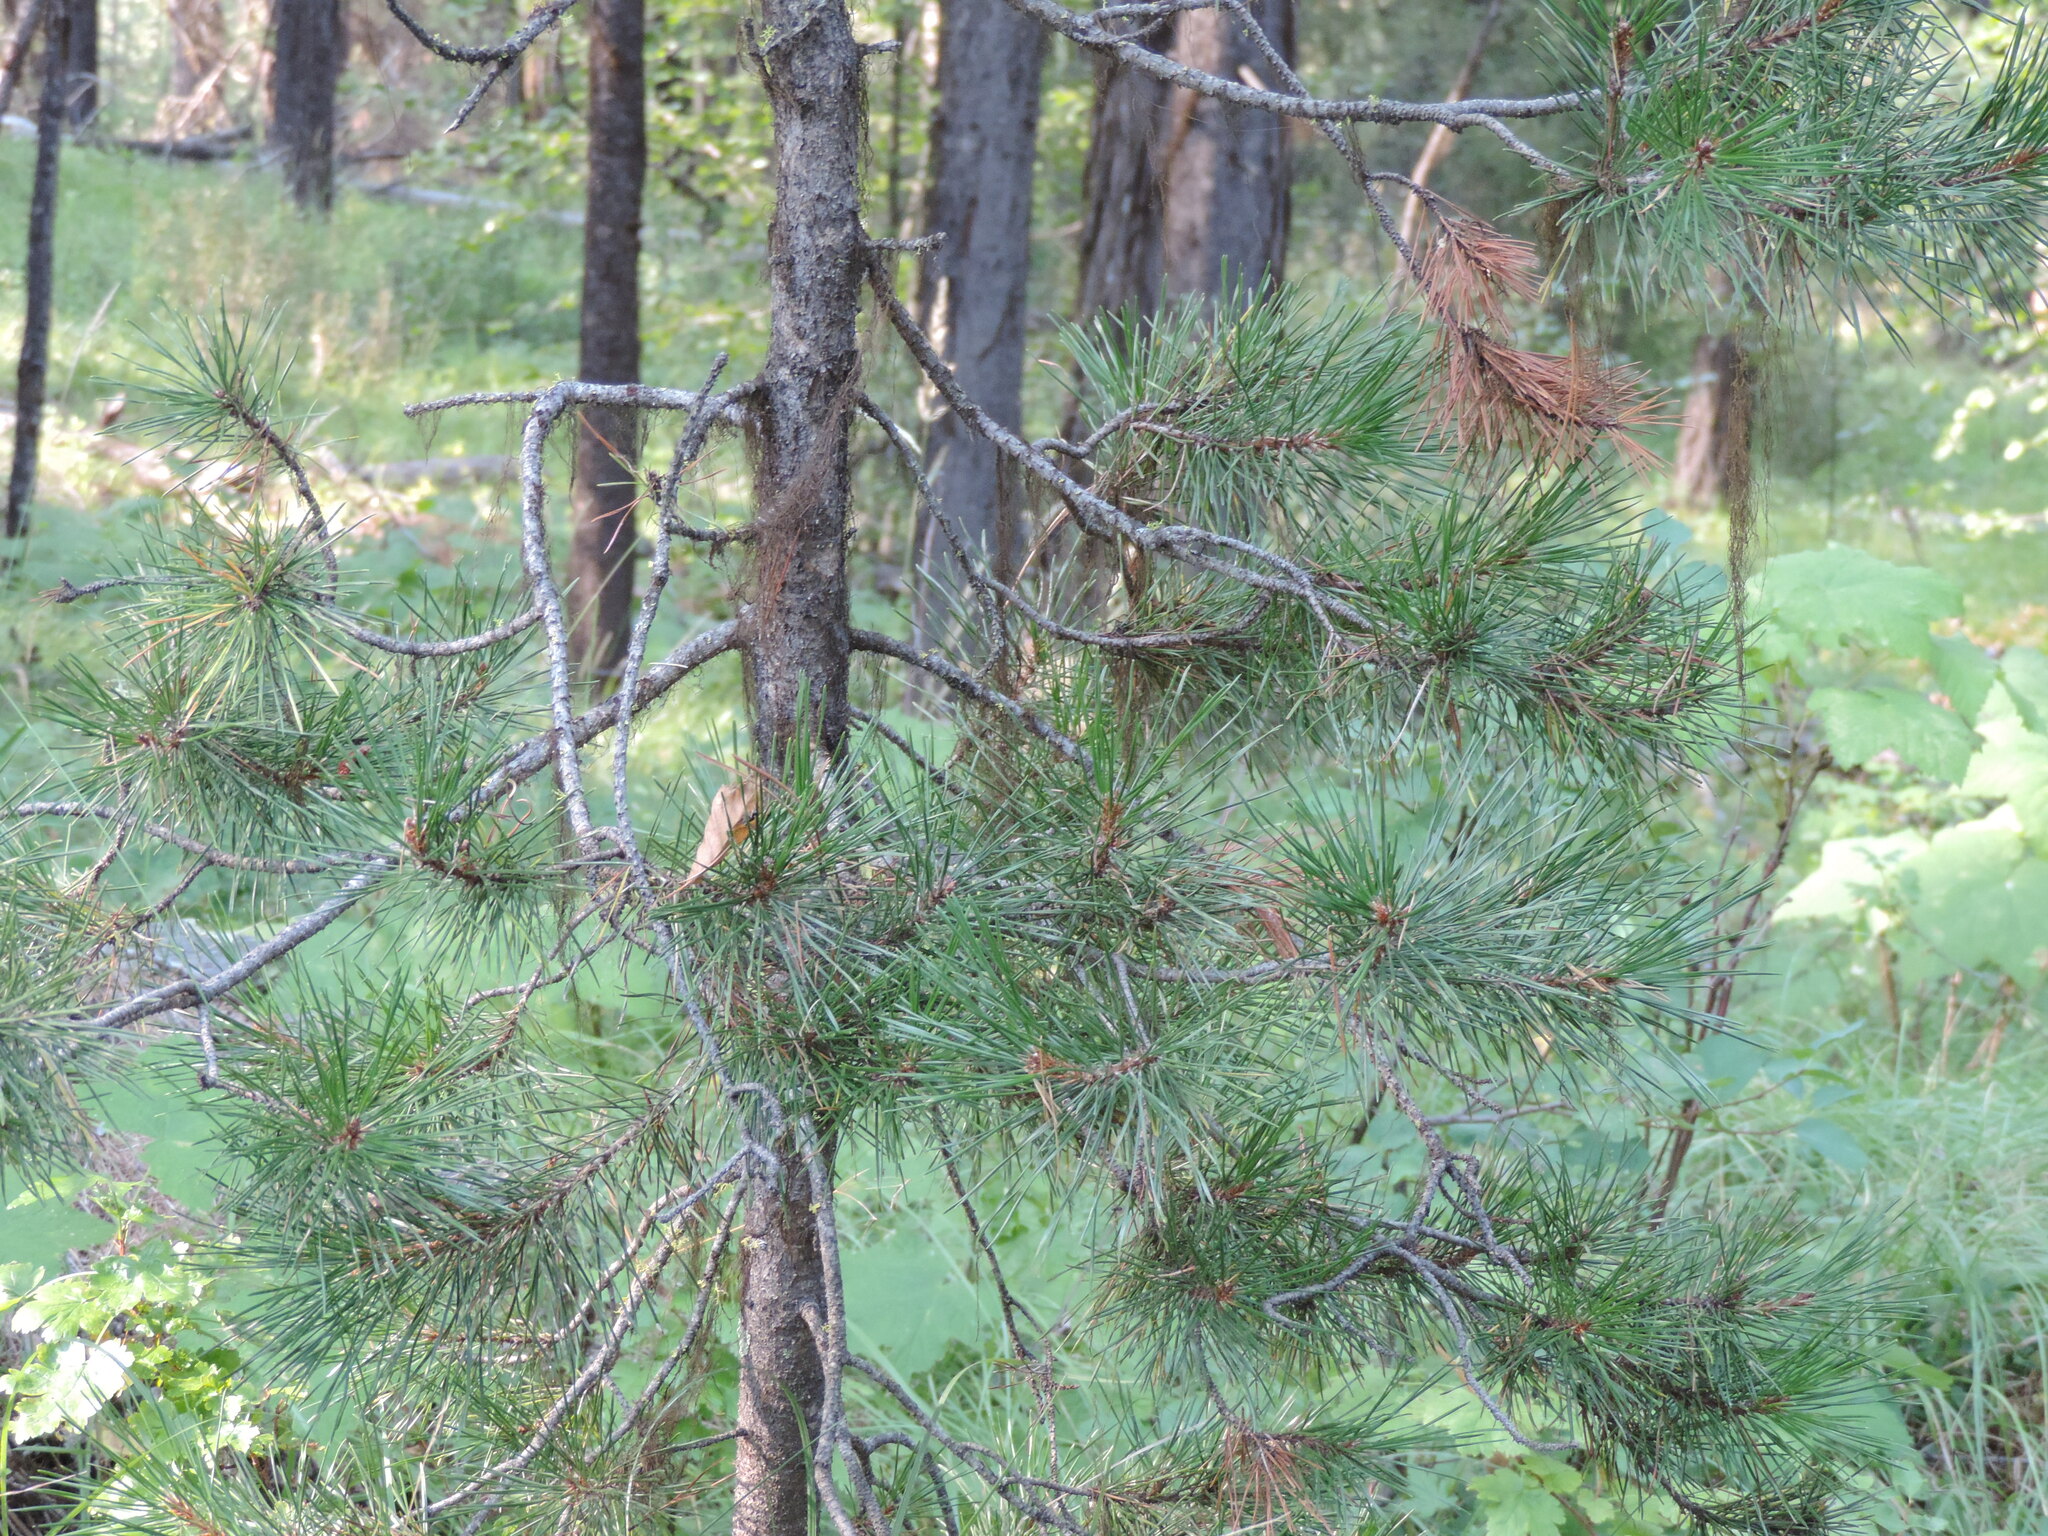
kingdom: Plantae
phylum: Tracheophyta
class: Pinopsida
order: Pinales
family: Pinaceae
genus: Pinus
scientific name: Pinus contorta
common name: Lodgepole pine
